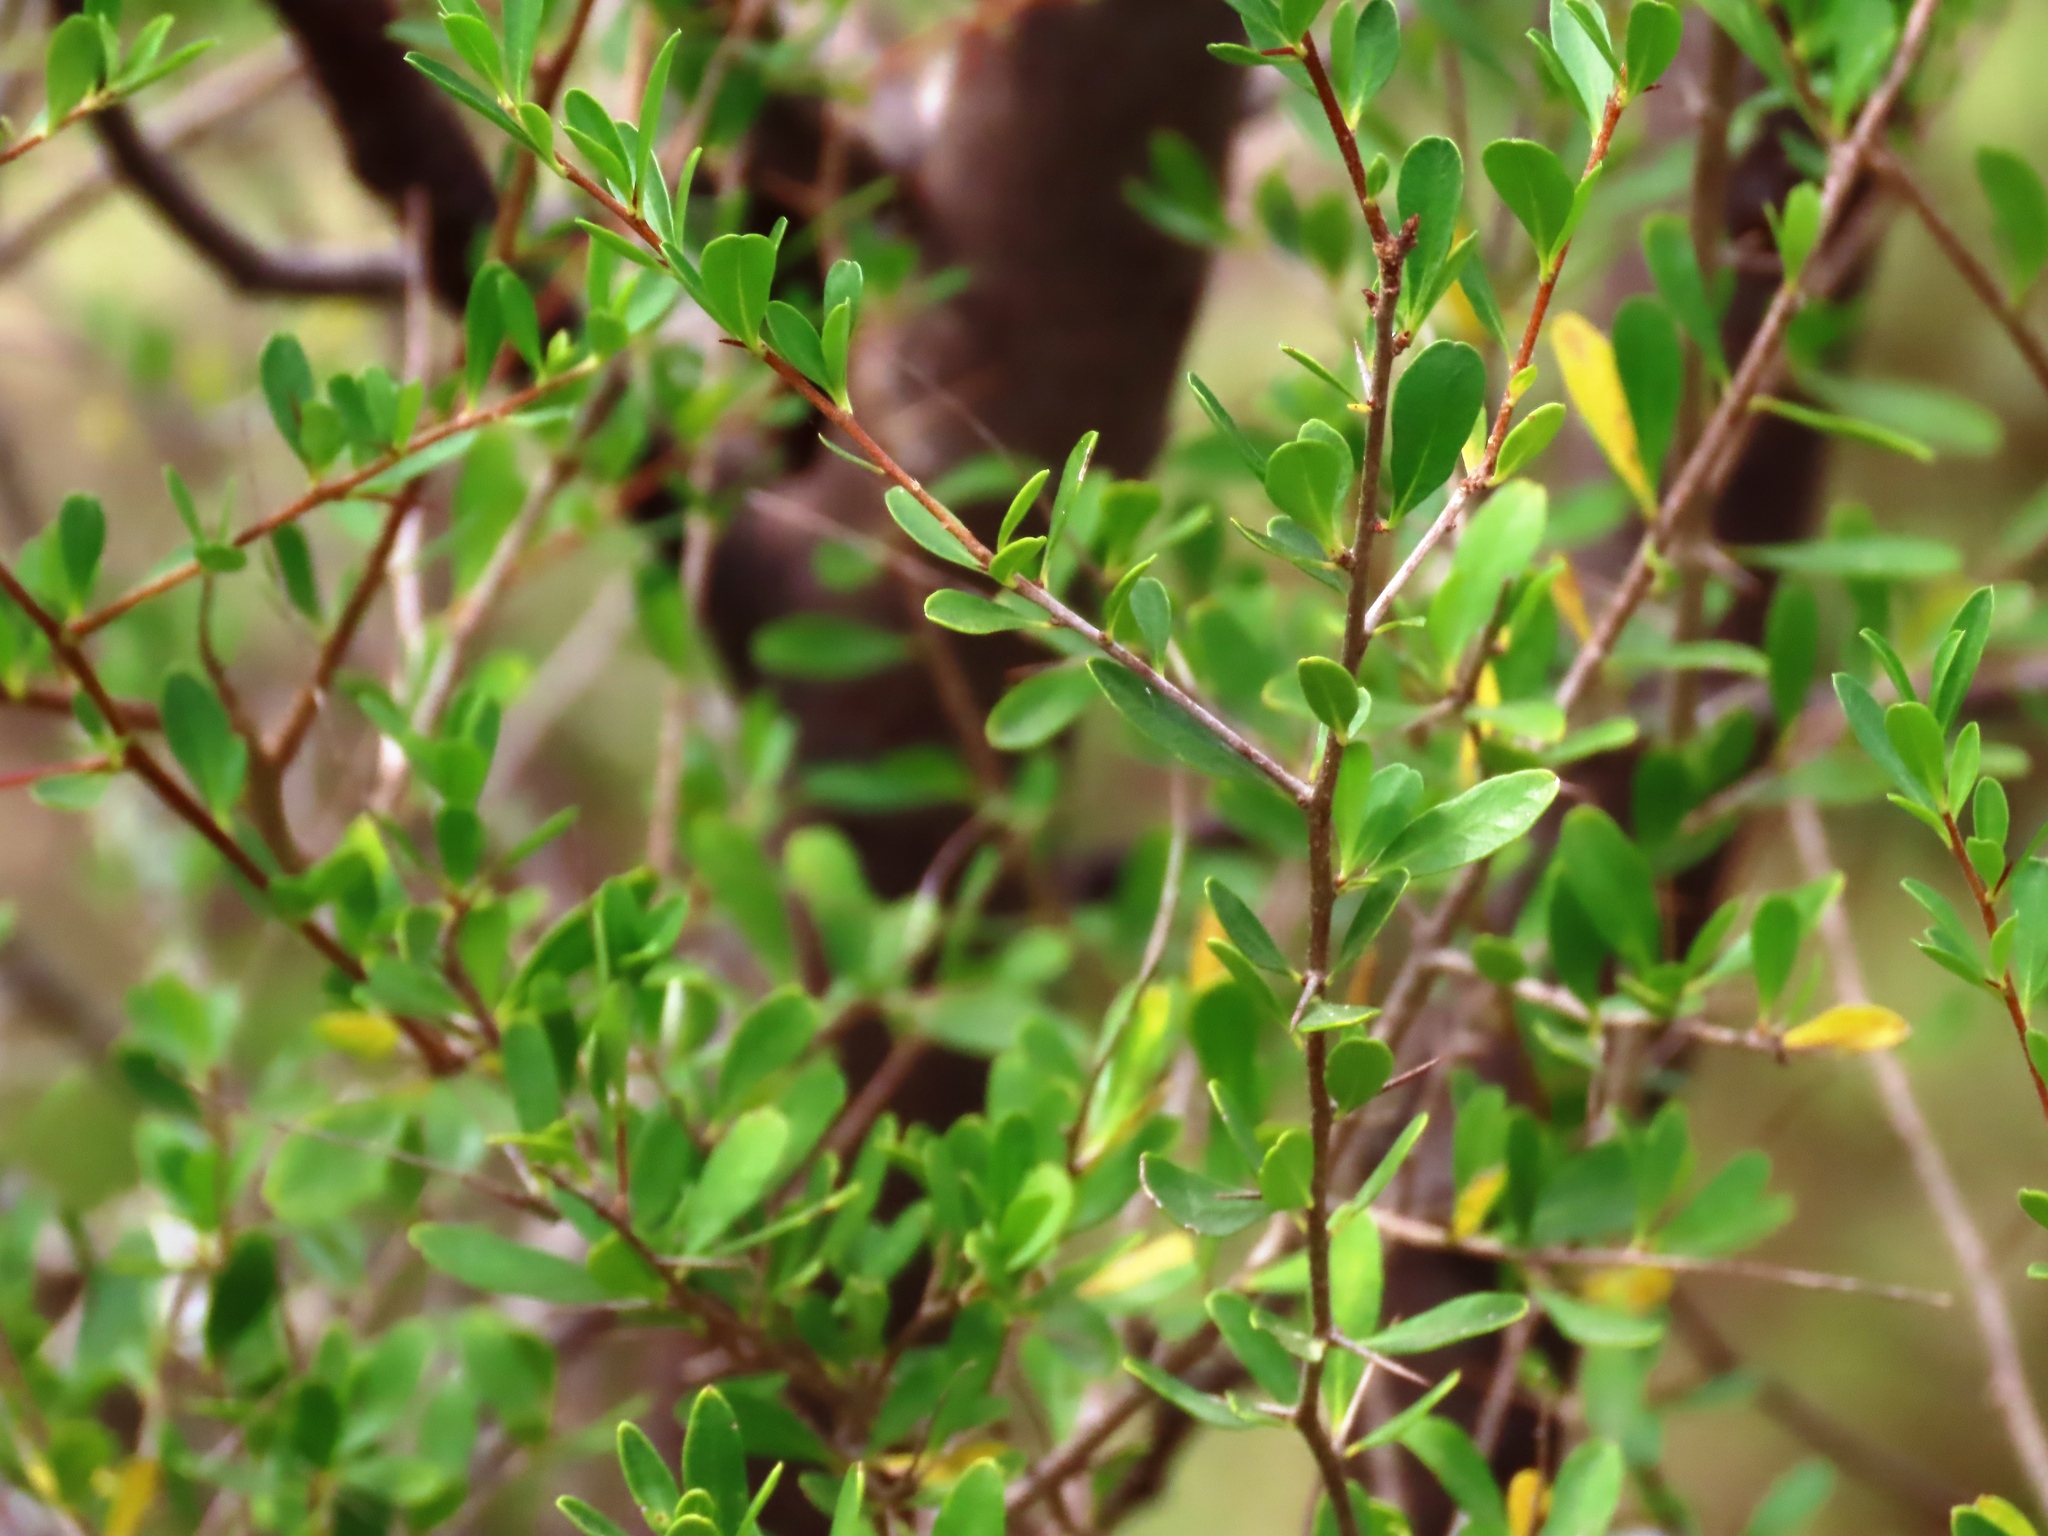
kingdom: Plantae
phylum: Tracheophyta
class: Magnoliopsida
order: Apiales
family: Pittosporaceae
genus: Bursaria
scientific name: Bursaria spinosa
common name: Australian blackthorn
